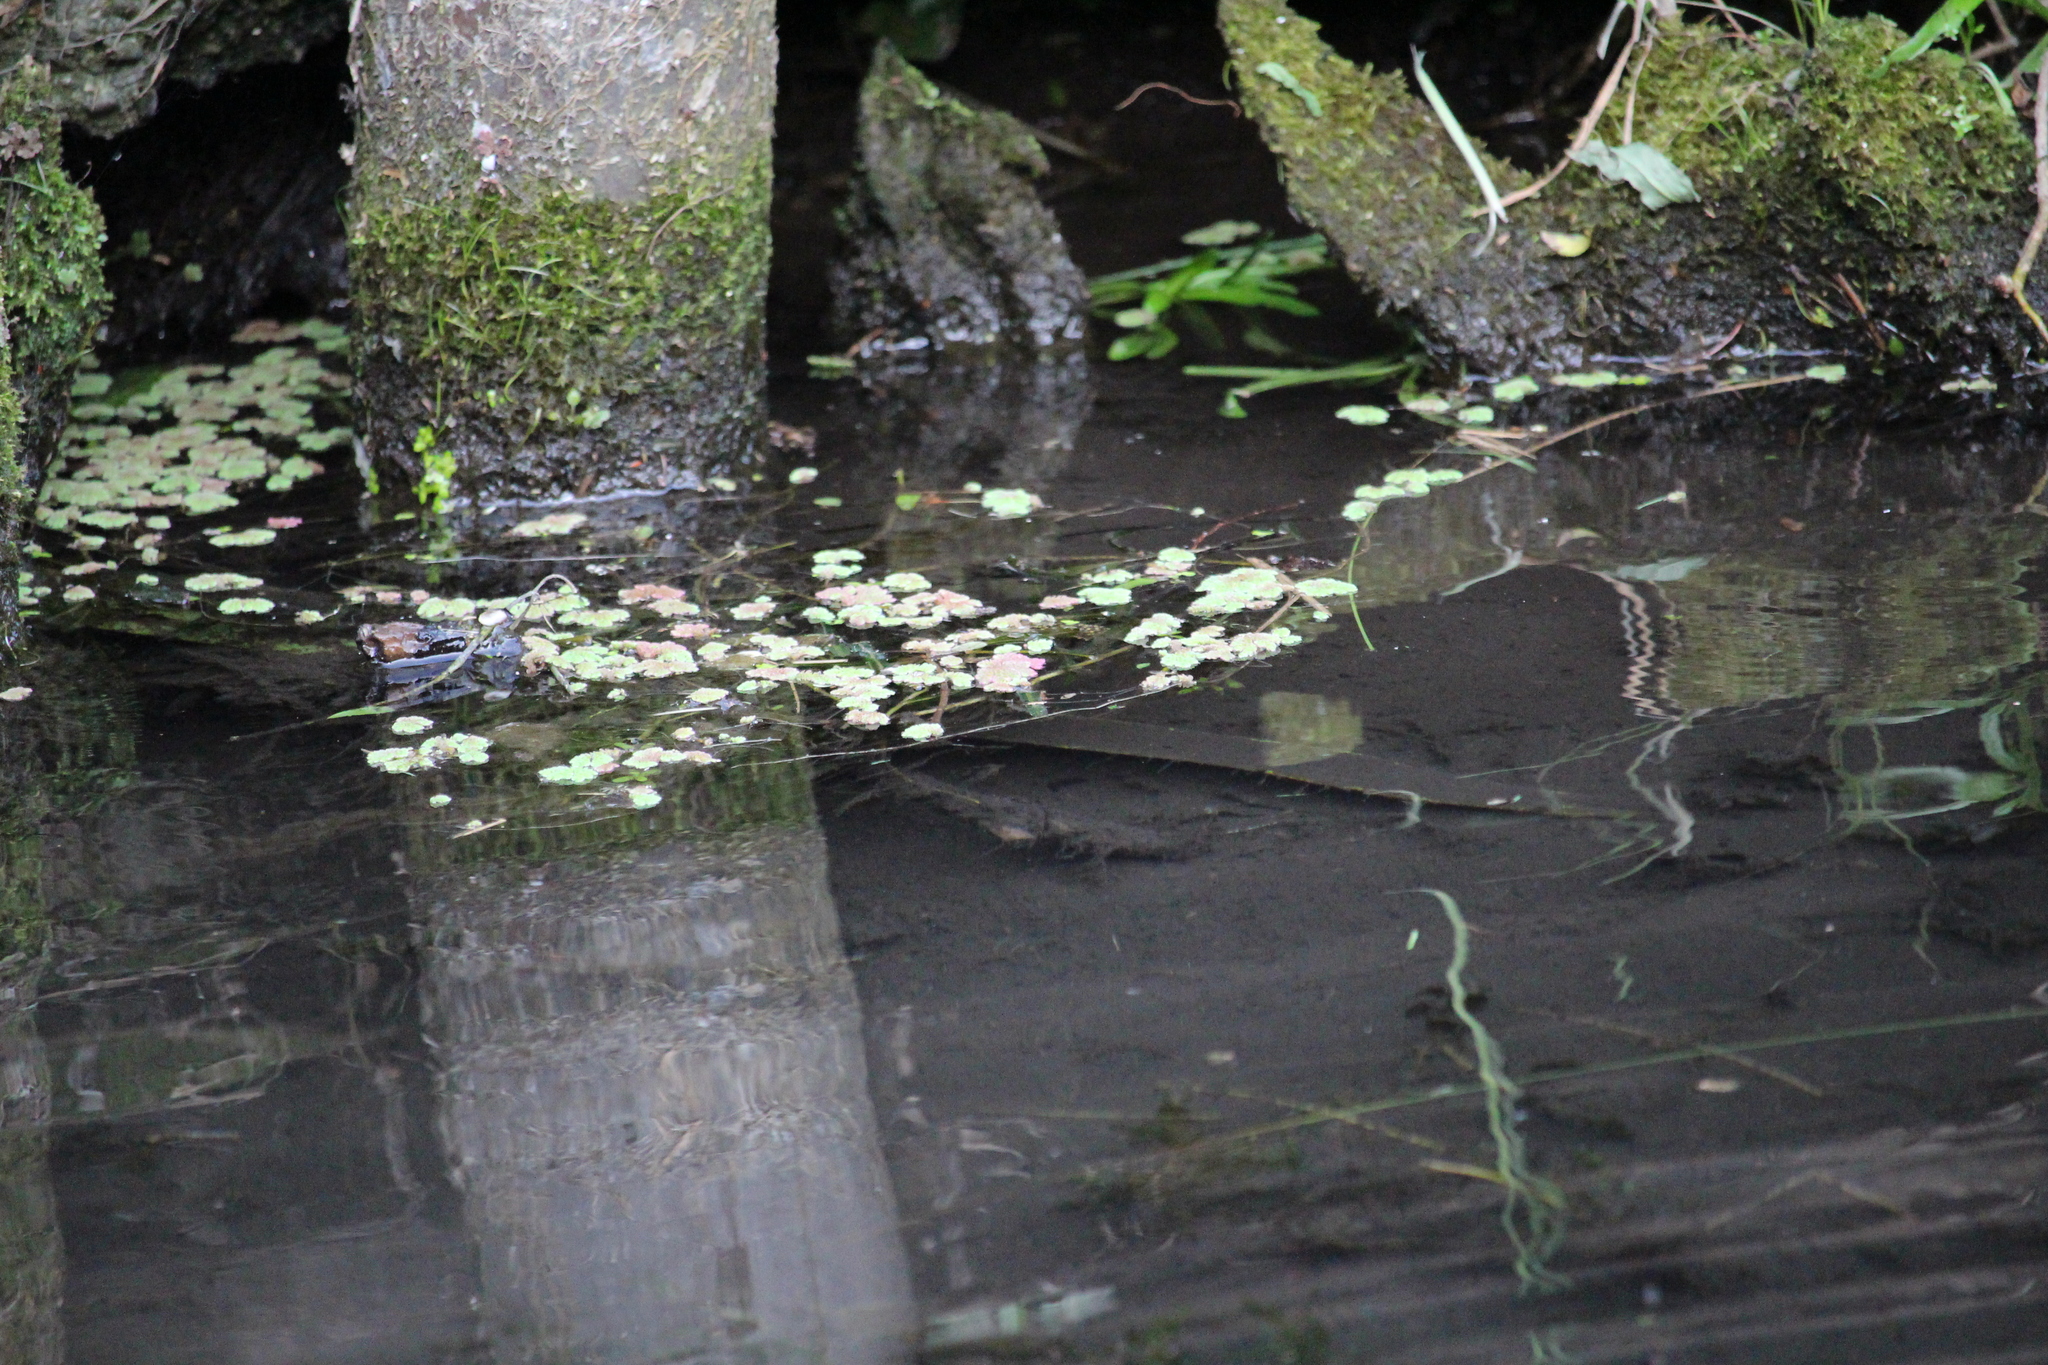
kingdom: Plantae
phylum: Tracheophyta
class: Polypodiopsida
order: Salviniales
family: Salviniaceae
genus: Azolla
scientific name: Azolla rubra
